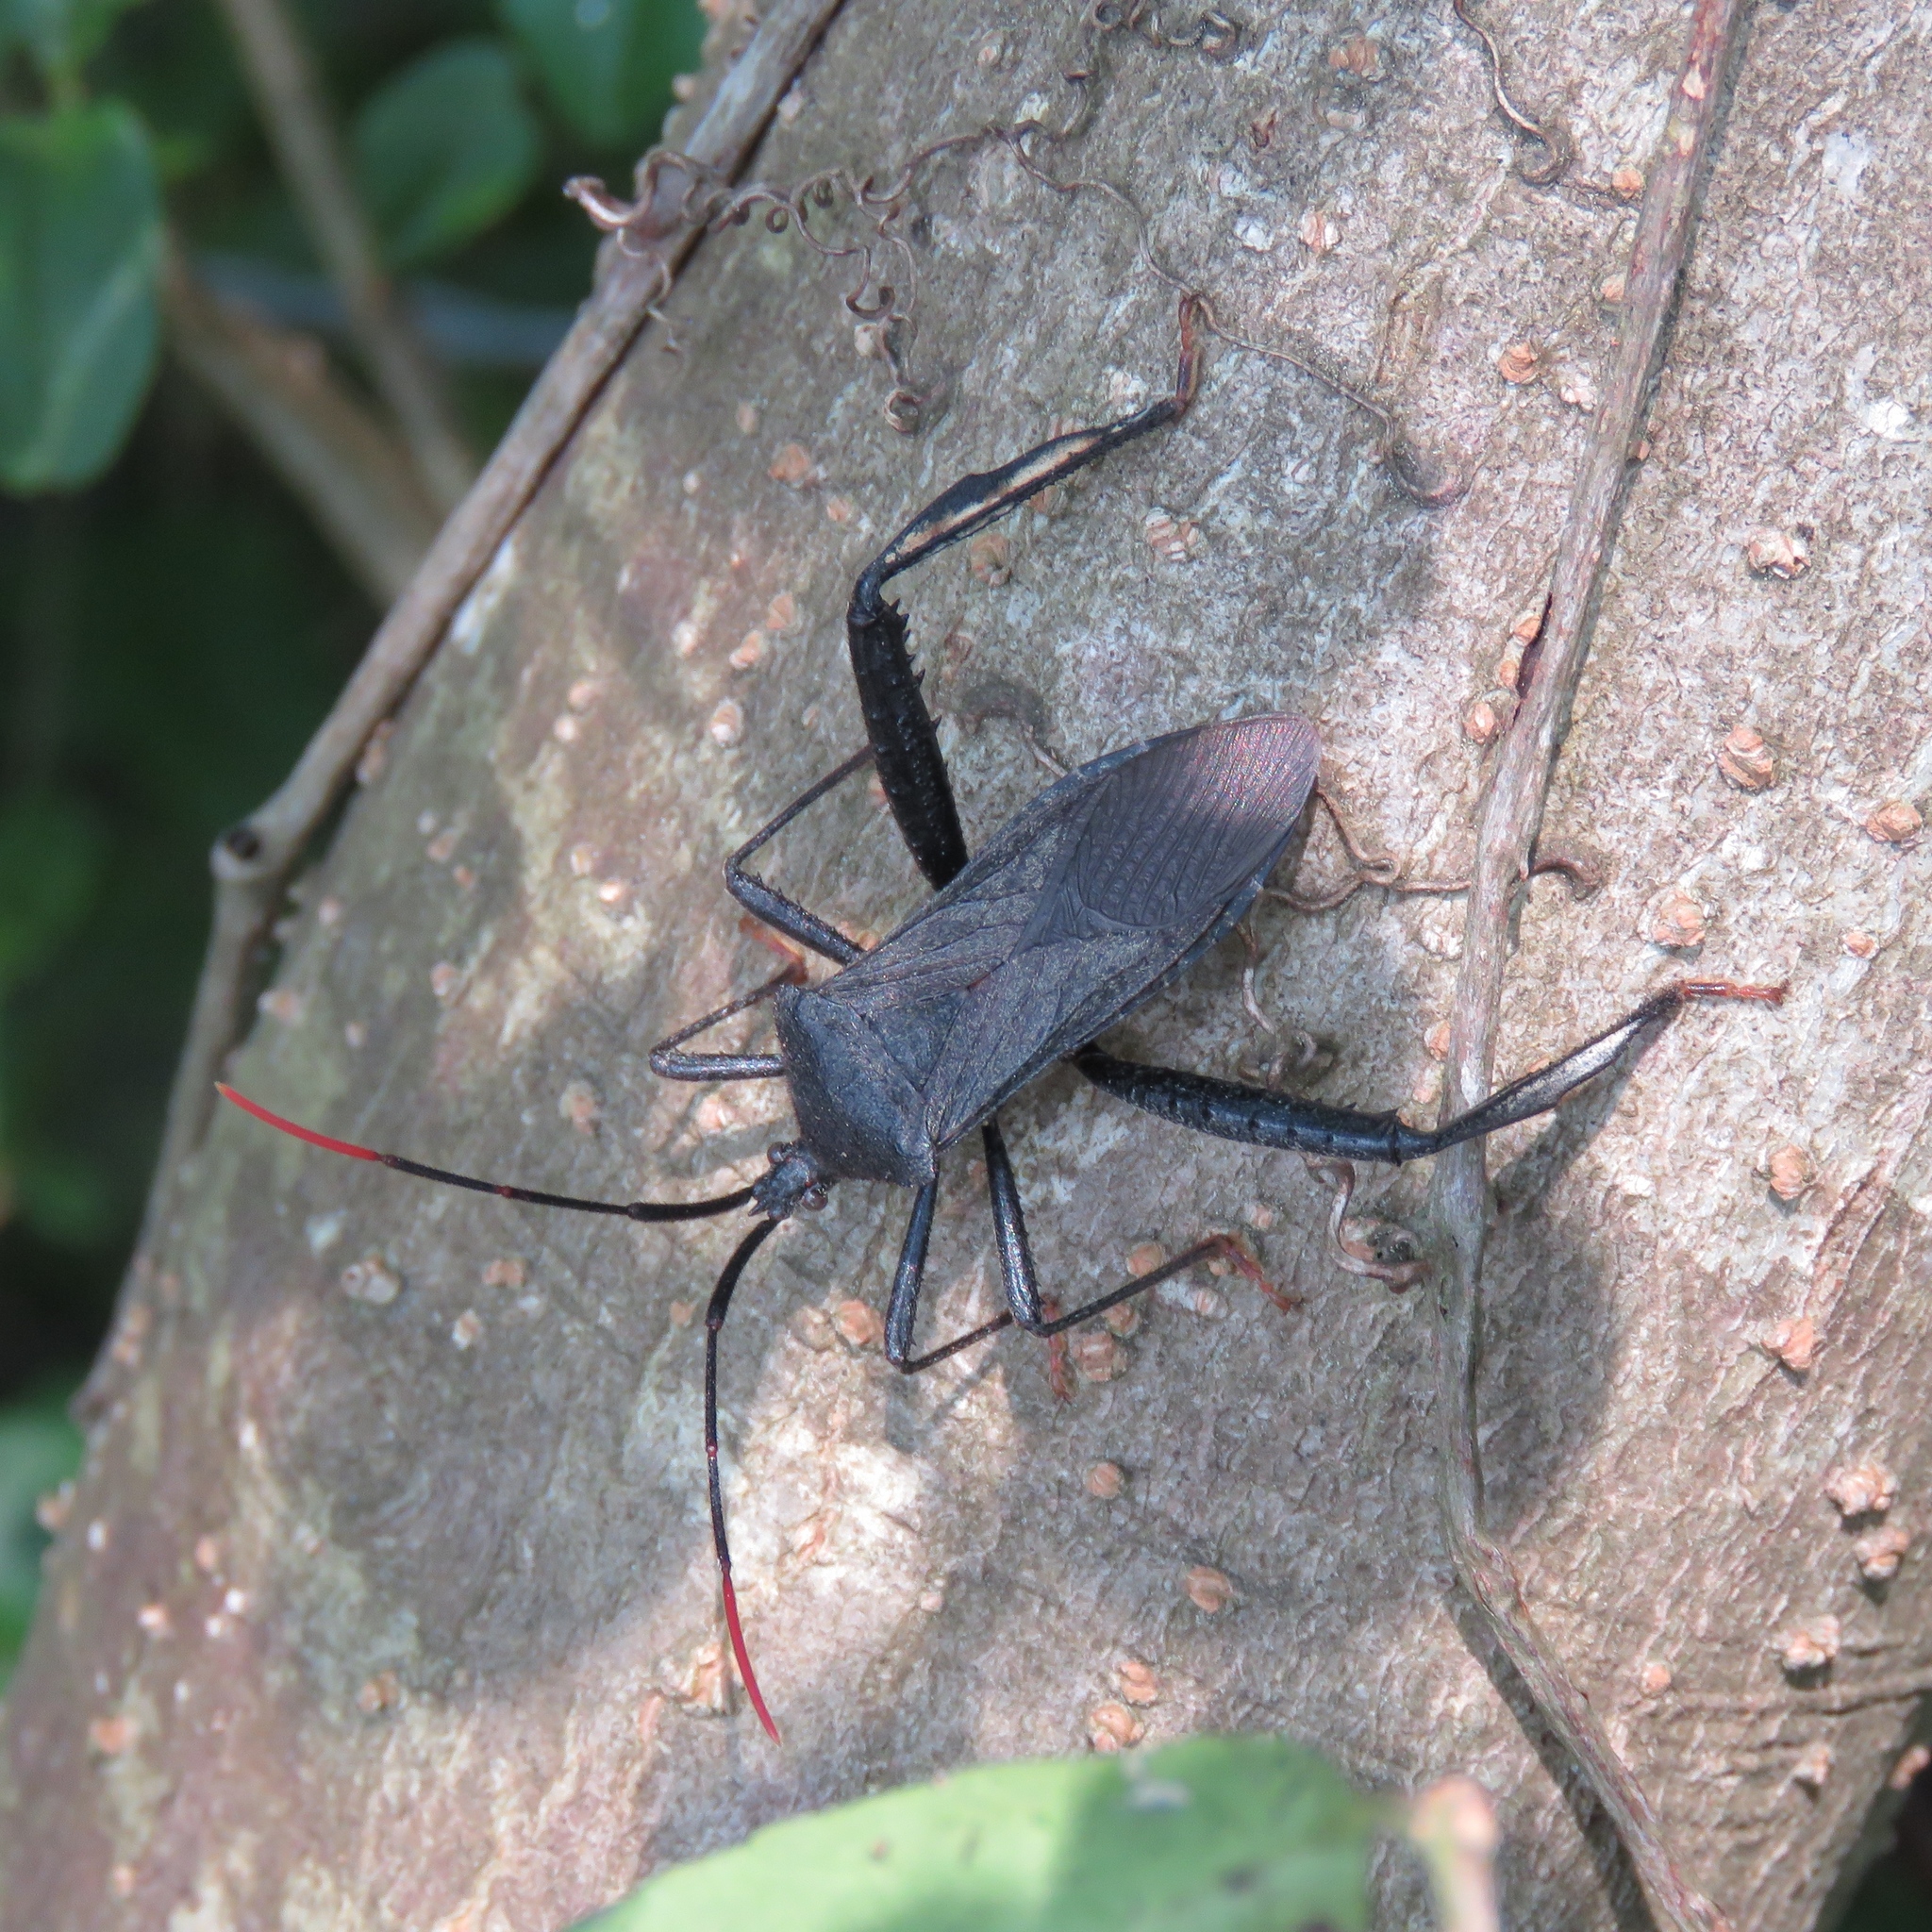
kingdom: Animalia
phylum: Arthropoda
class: Insecta
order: Hemiptera
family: Coreidae
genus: Acanthocephala
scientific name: Acanthocephala terminalis
